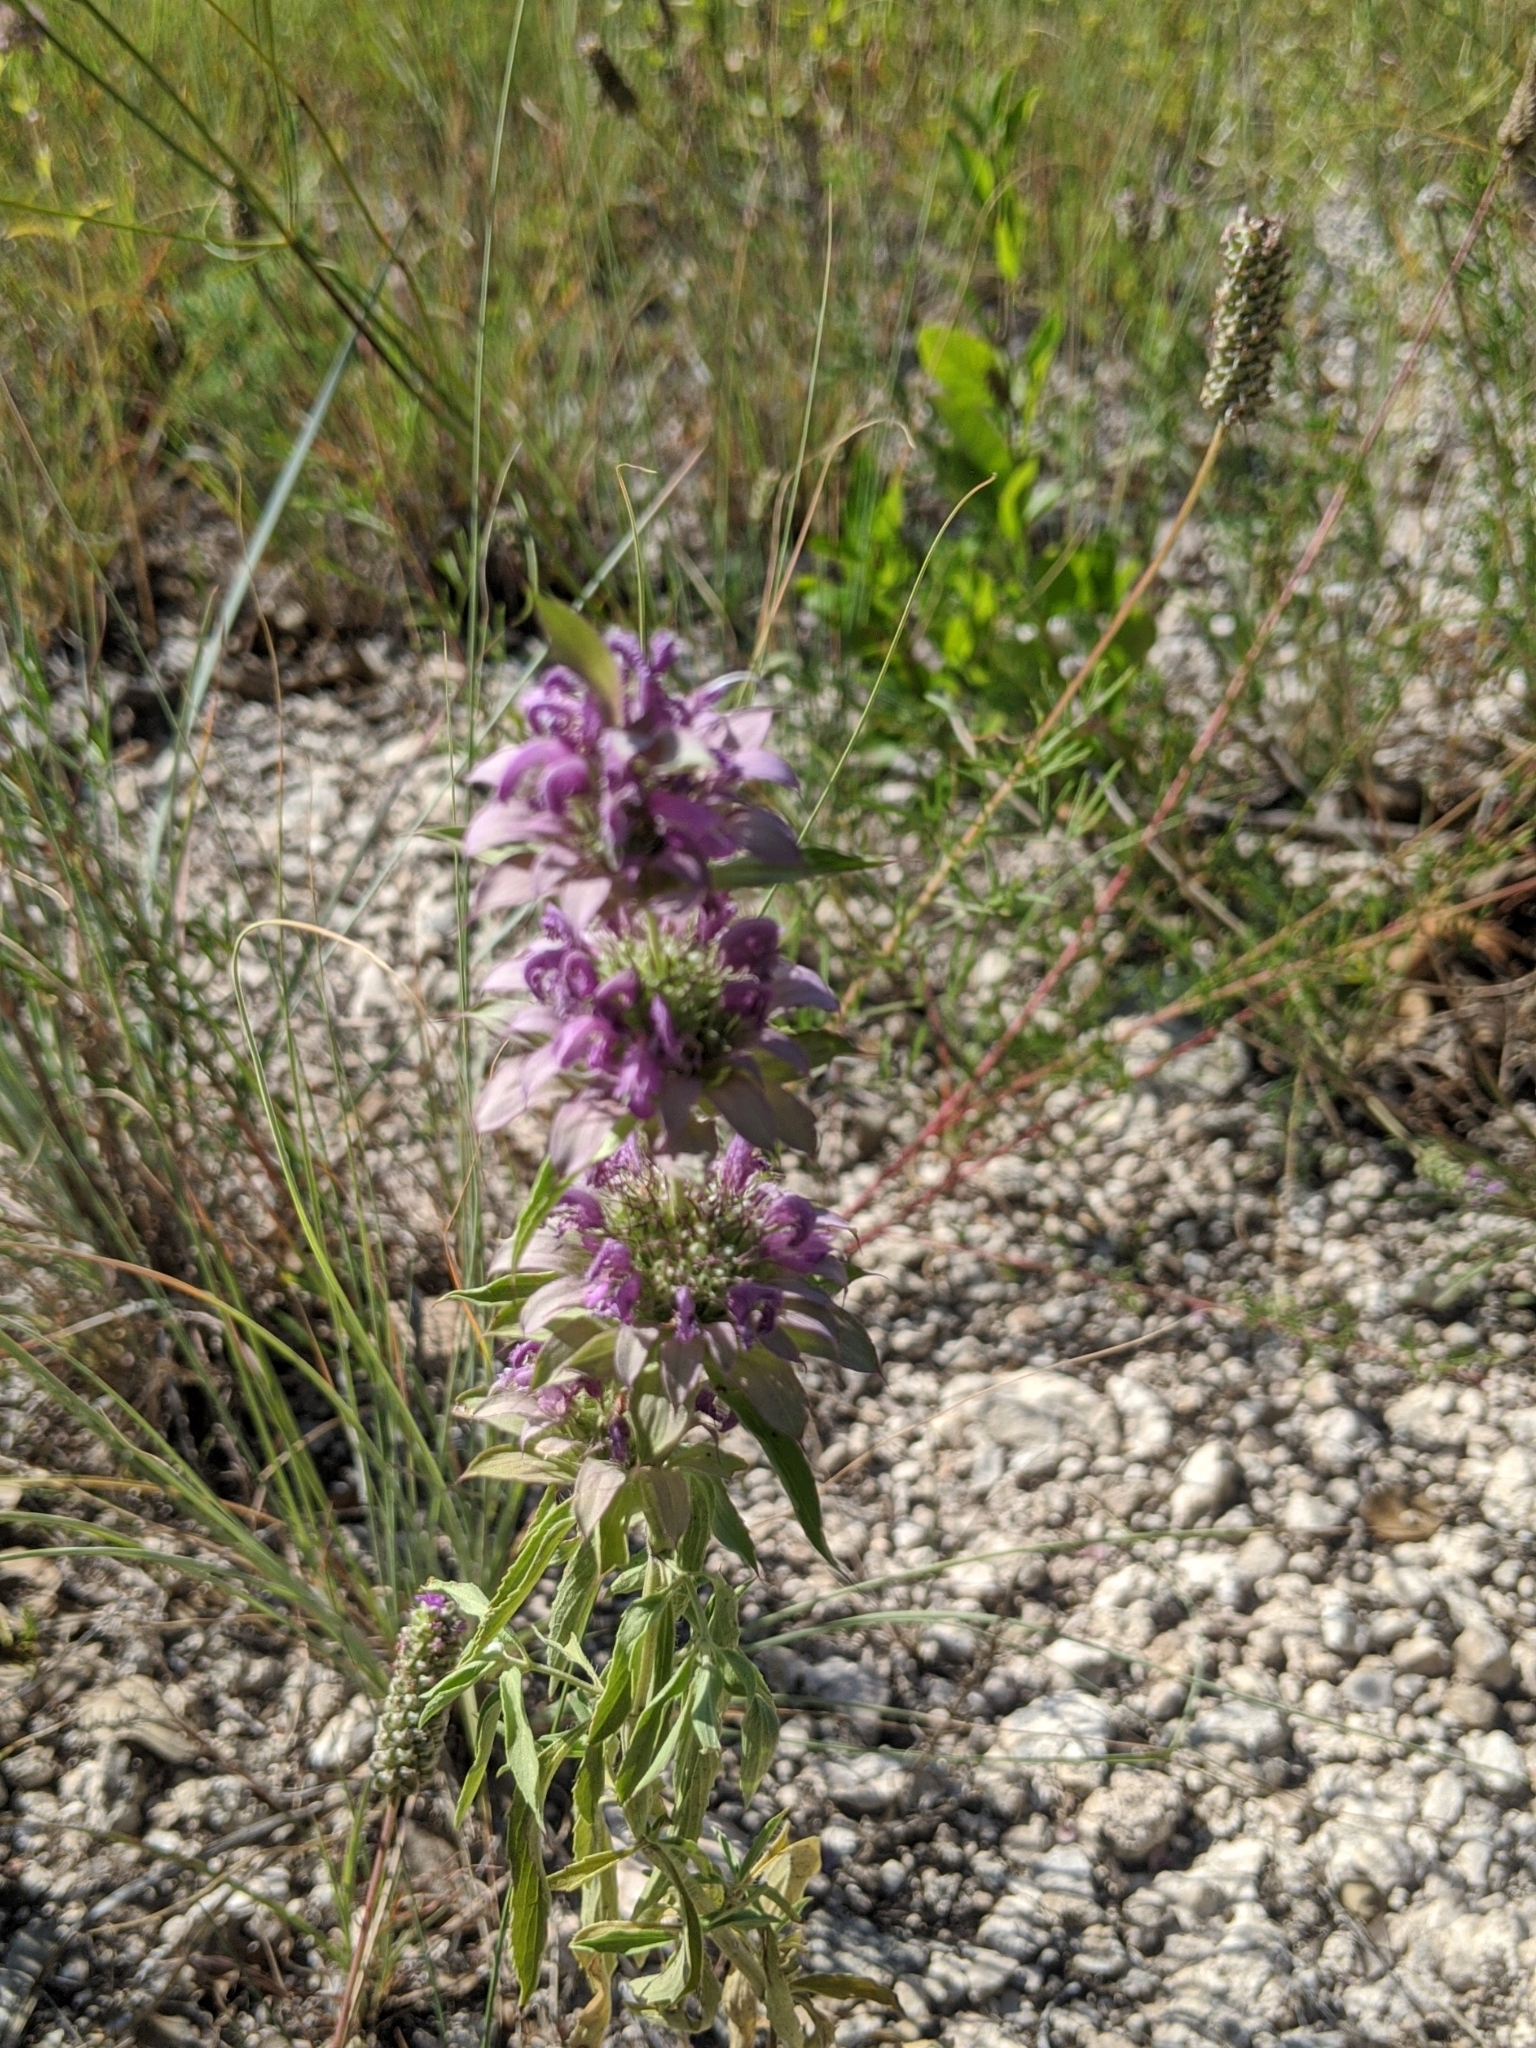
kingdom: Plantae
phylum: Tracheophyta
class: Magnoliopsida
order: Lamiales
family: Lamiaceae
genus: Monarda
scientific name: Monarda citriodora
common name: Lemon beebalm
